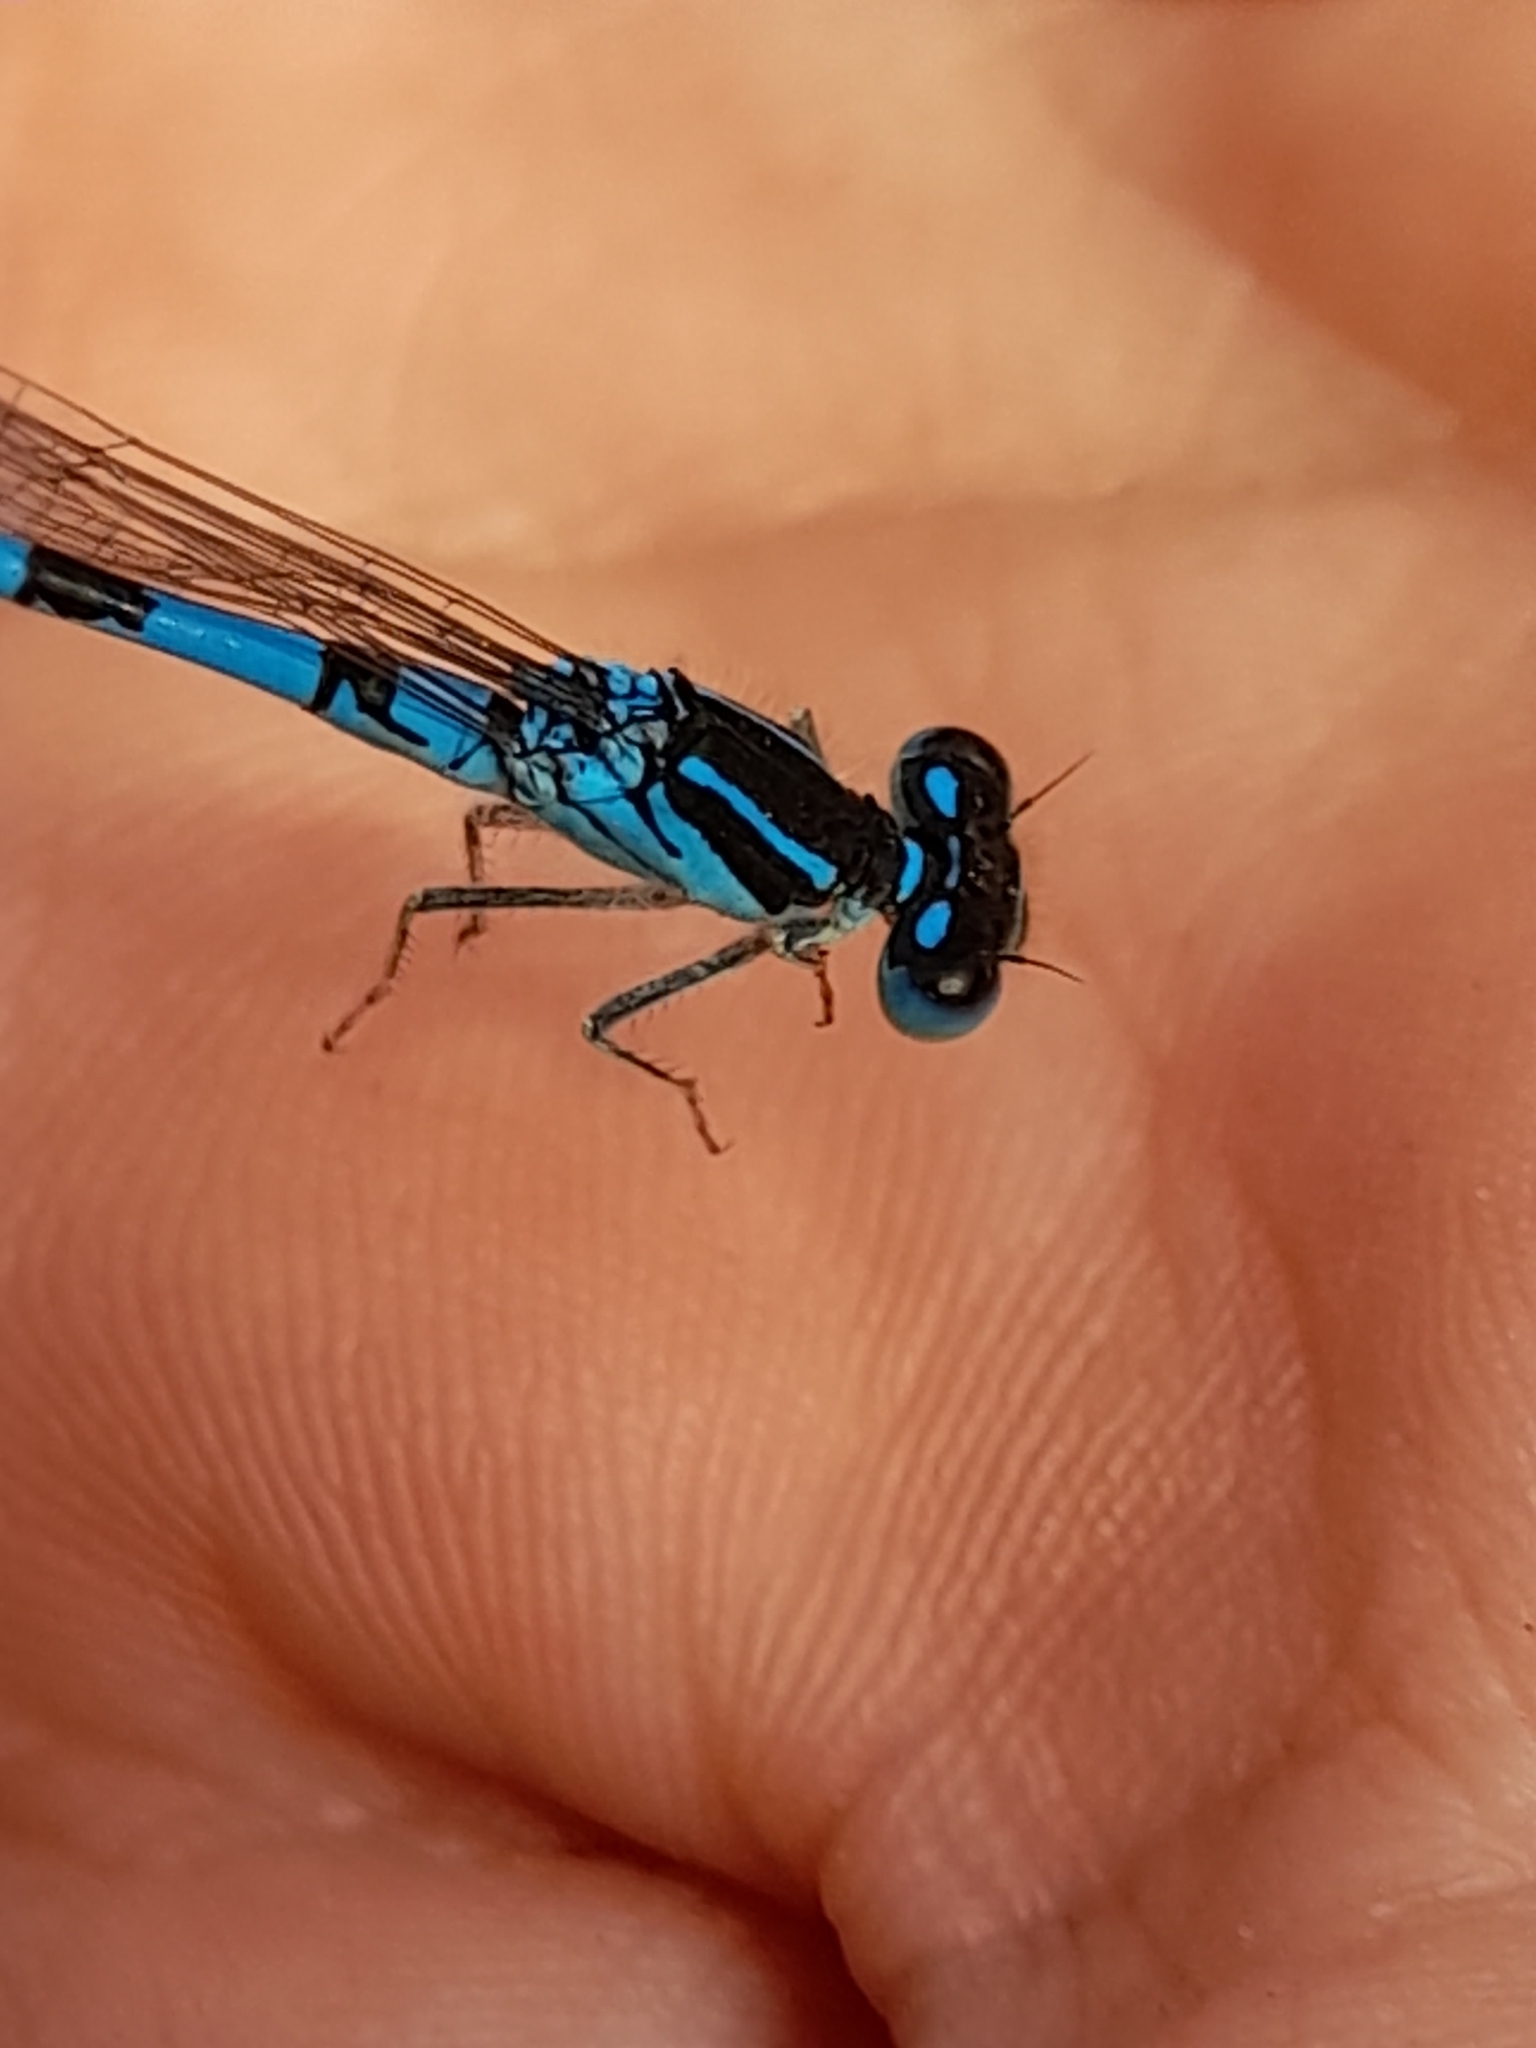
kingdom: Animalia
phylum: Arthropoda
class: Insecta
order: Odonata
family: Coenagrionidae
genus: Coenagrion
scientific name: Coenagrion scitulum
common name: Dainty bluet
